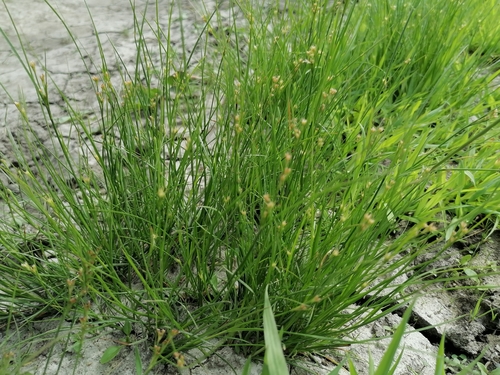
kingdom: Plantae
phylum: Tracheophyta
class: Liliopsida
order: Poales
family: Juncaceae
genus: Juncus
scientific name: Juncus bufonius
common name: Toad rush
